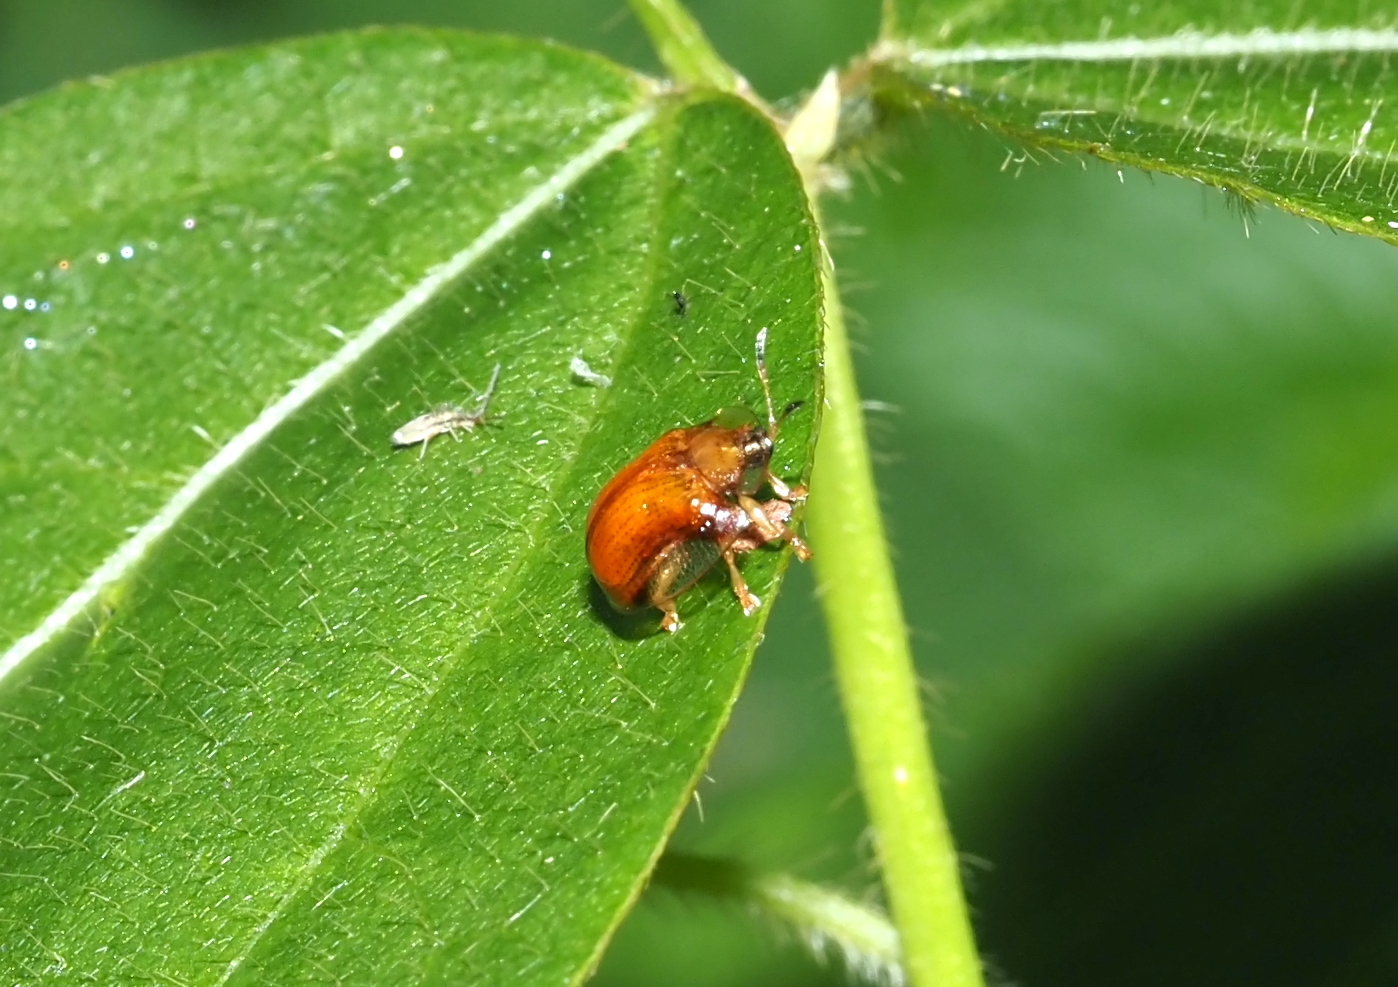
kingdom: Animalia
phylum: Arthropoda
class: Insecta
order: Coleoptera
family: Chrysomelidae
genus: Charidotella
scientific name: Charidotella purpurata
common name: Small orange tortoise beetle
